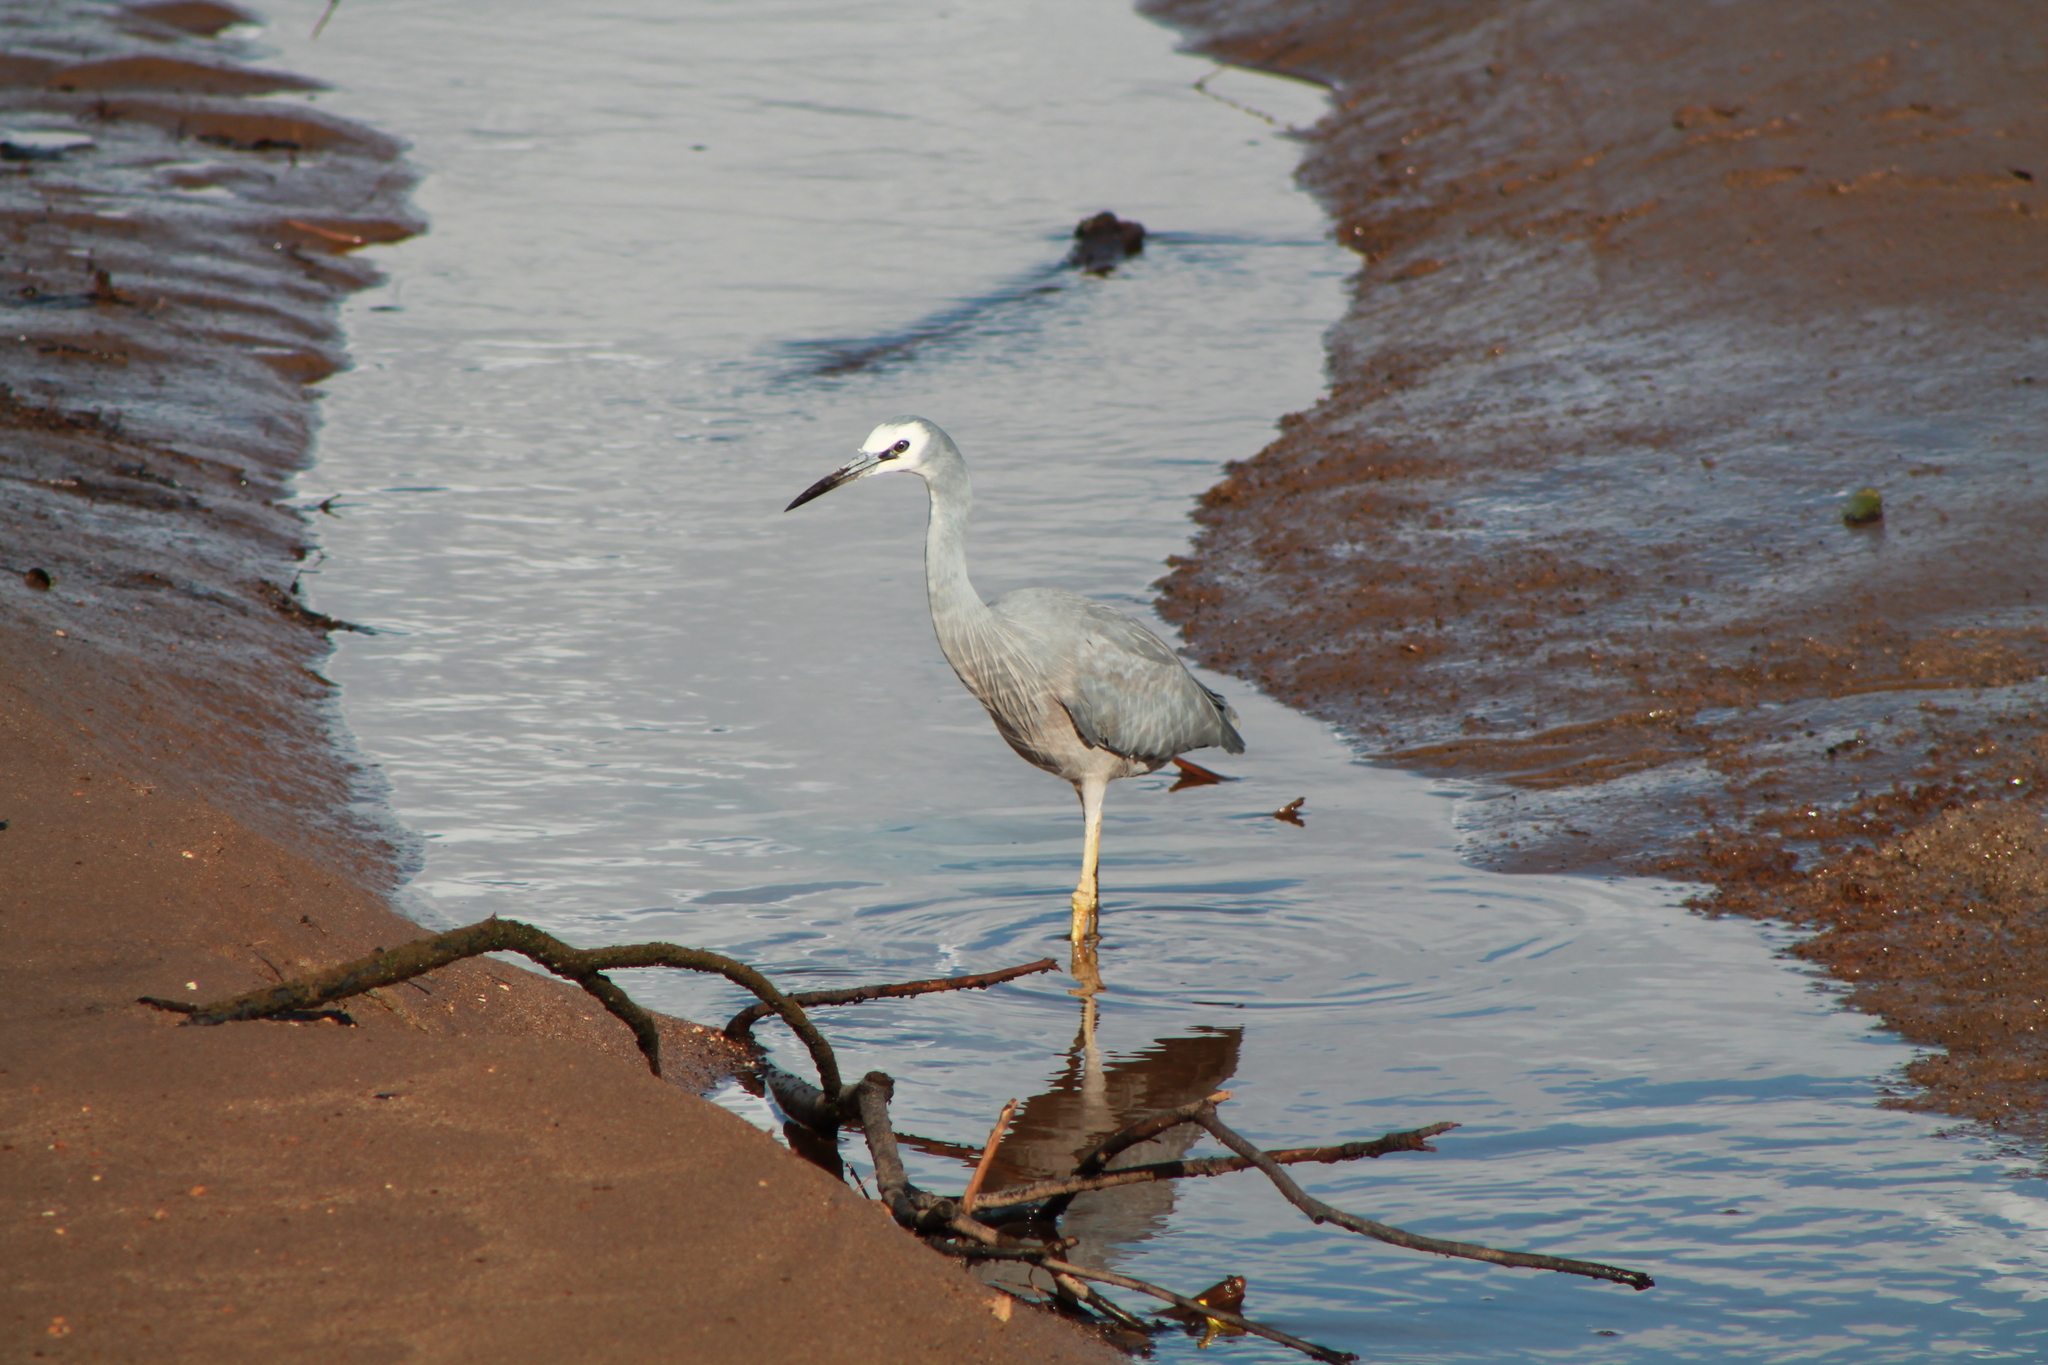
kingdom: Animalia
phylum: Chordata
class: Aves
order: Pelecaniformes
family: Ardeidae
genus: Egretta
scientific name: Egretta novaehollandiae
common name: White-faced heron
